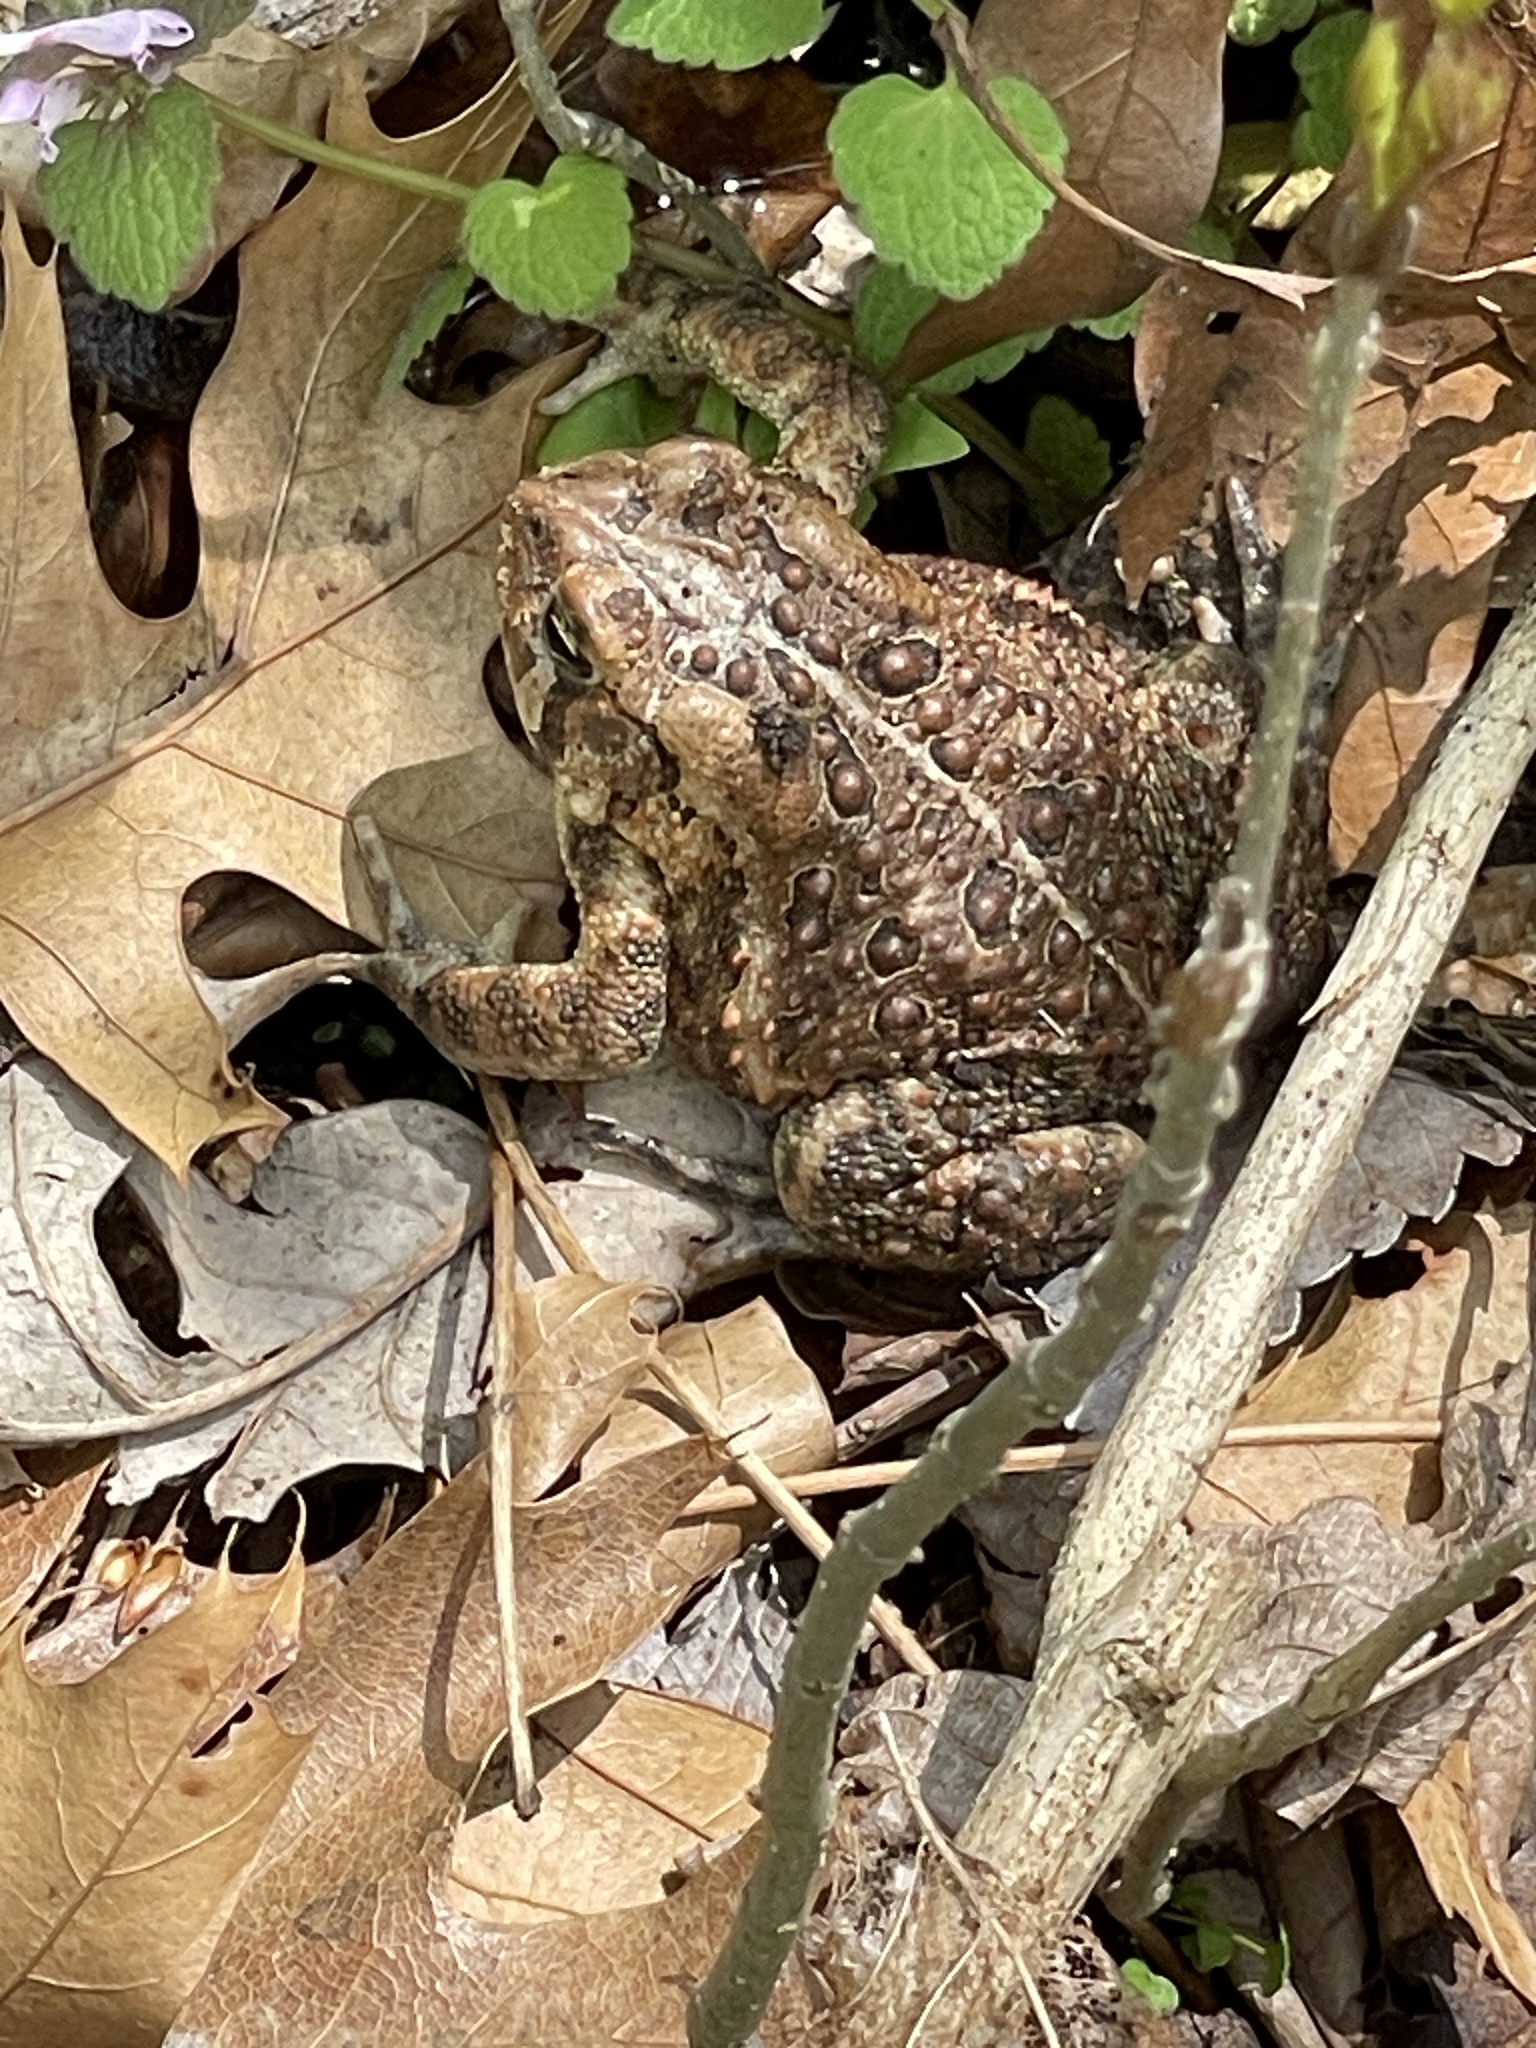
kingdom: Animalia
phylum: Chordata
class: Amphibia
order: Anura
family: Bufonidae
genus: Anaxyrus
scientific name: Anaxyrus americanus
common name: American toad
